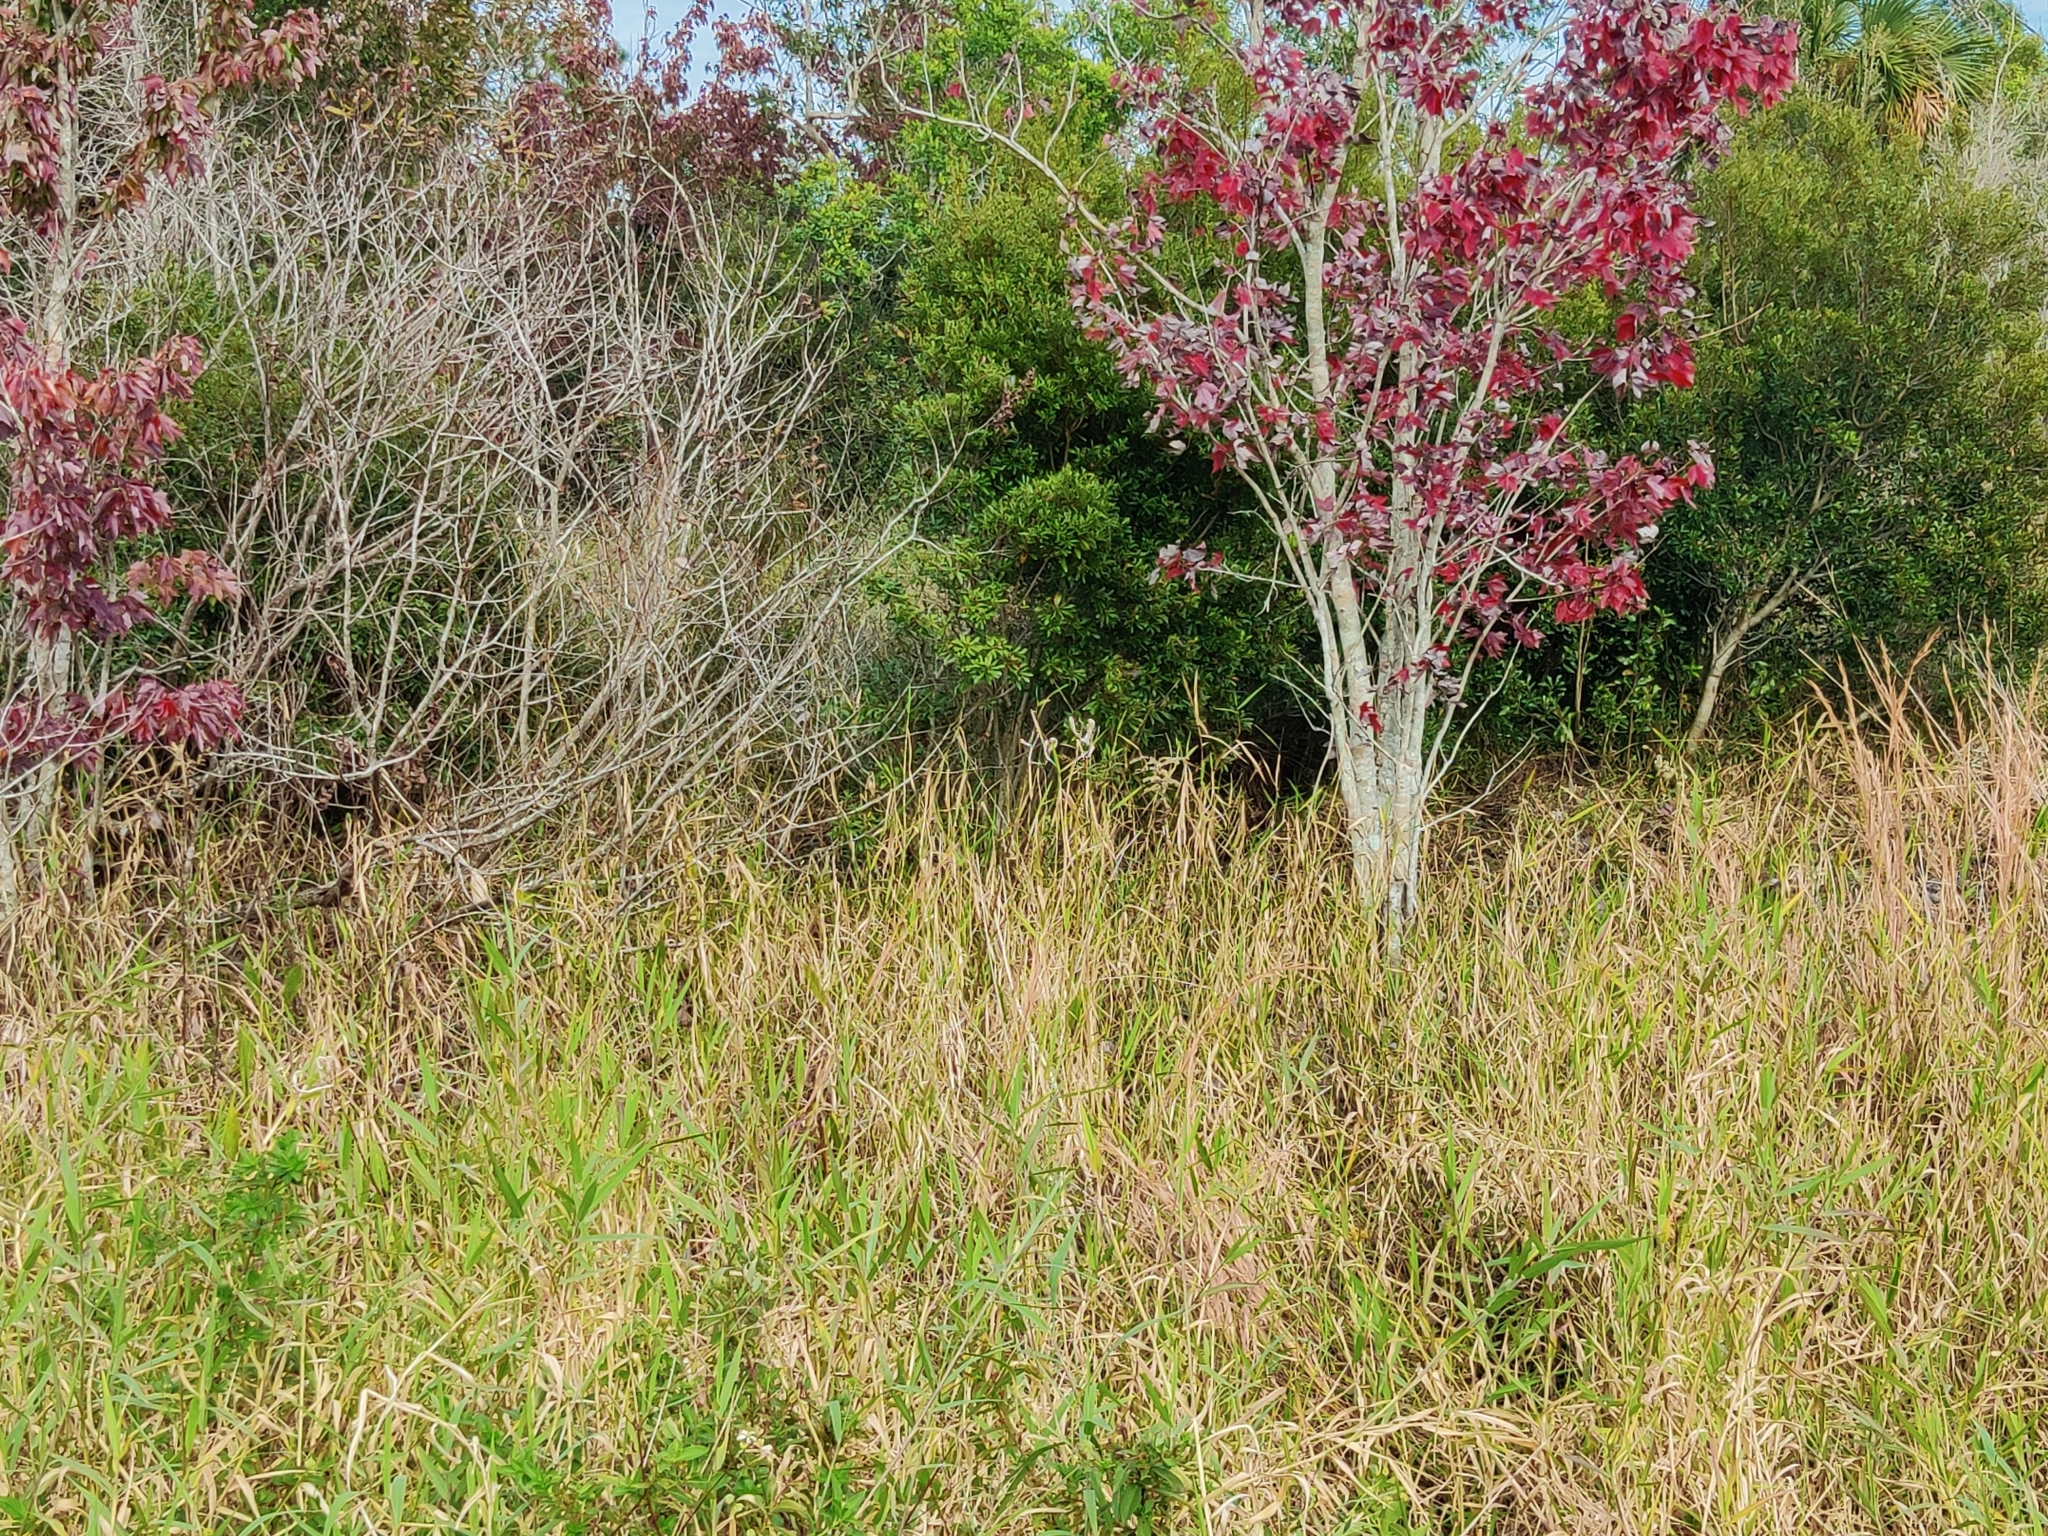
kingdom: Plantae
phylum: Tracheophyta
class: Magnoliopsida
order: Gentianales
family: Apocynaceae
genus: Asclepias
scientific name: Asclepias incarnata
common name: Swamp milkweed
